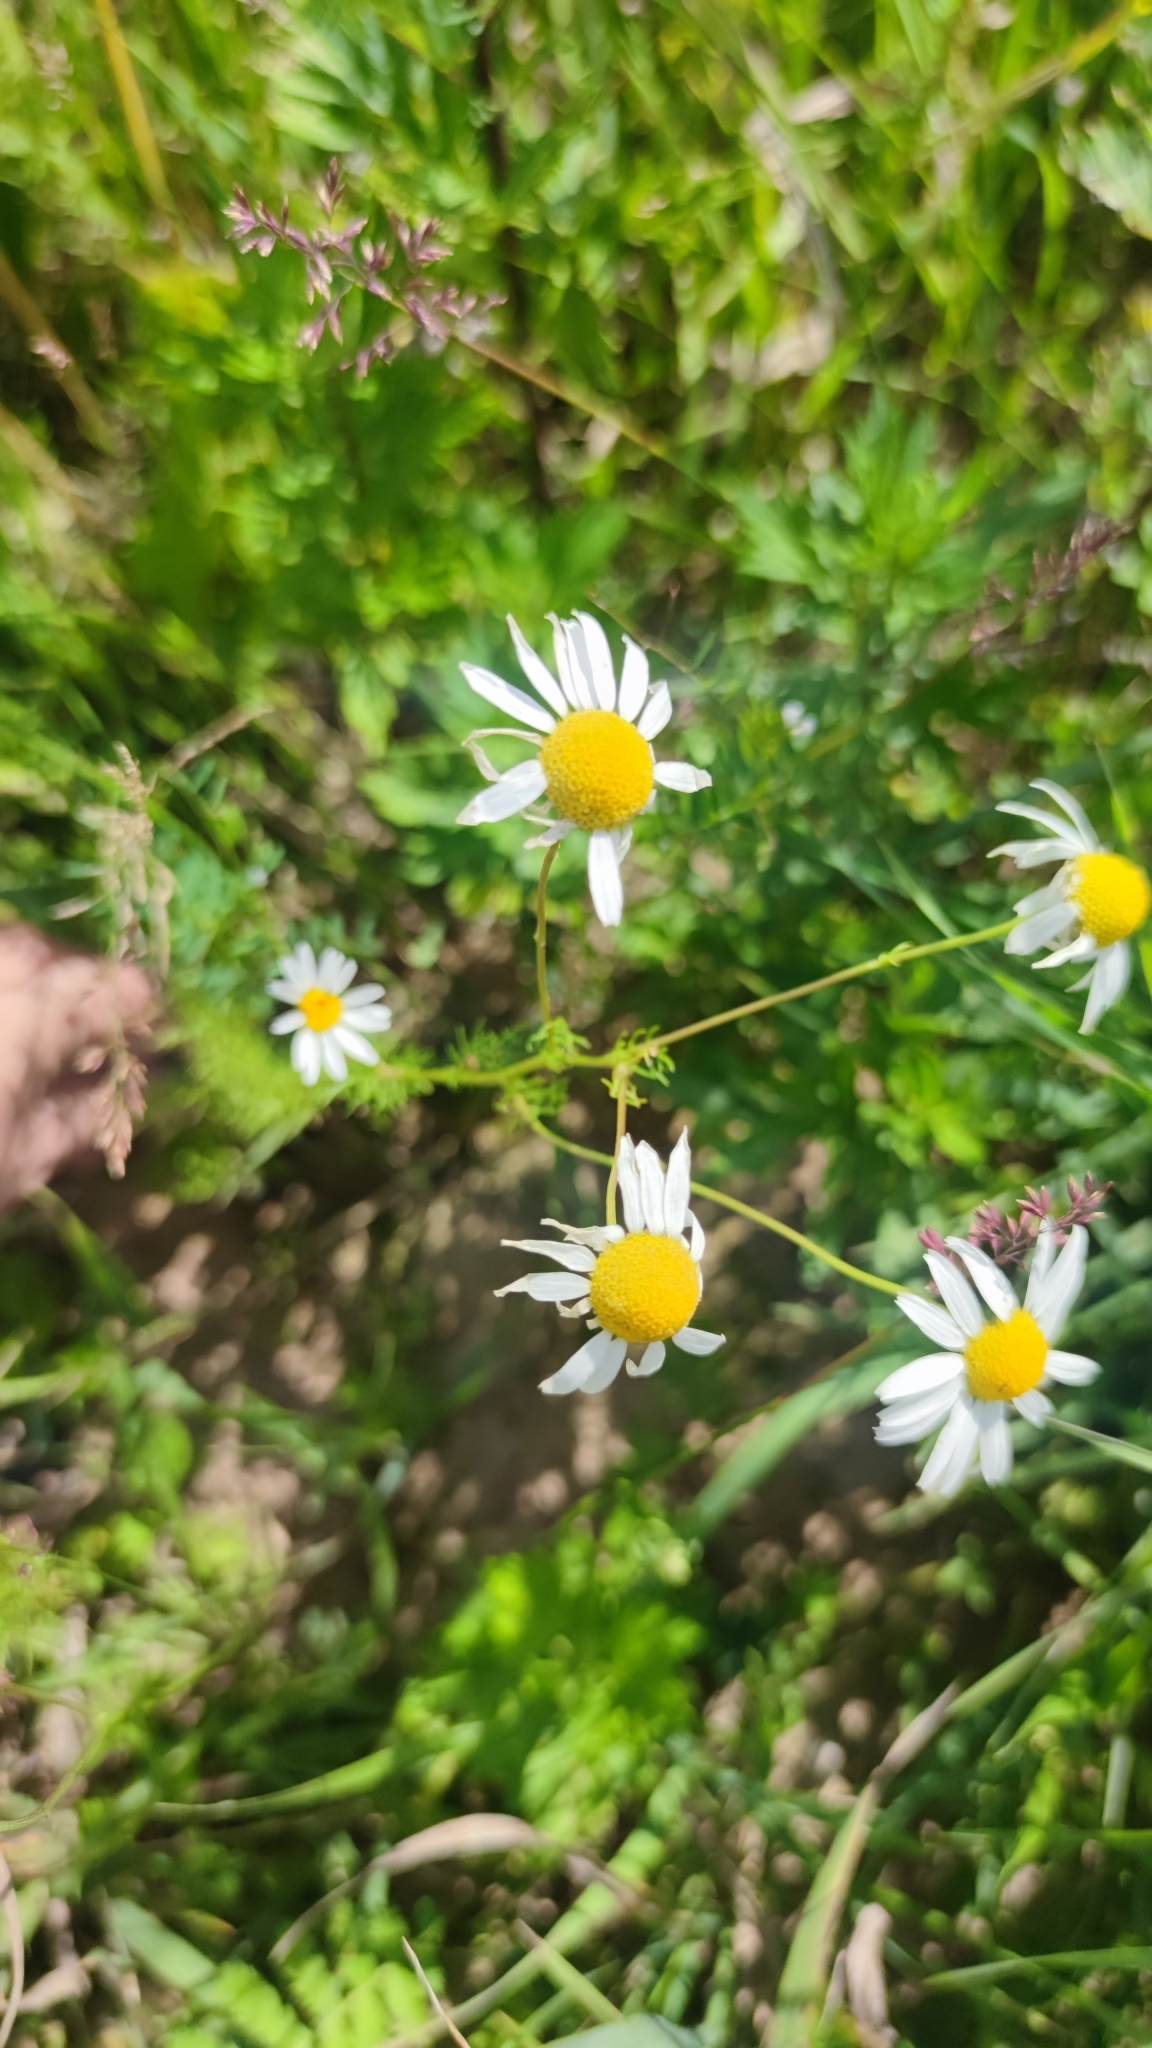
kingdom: Plantae
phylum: Tracheophyta
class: Magnoliopsida
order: Asterales
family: Asteraceae
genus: Tripleurospermum
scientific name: Tripleurospermum inodorum
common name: Scentless mayweed
